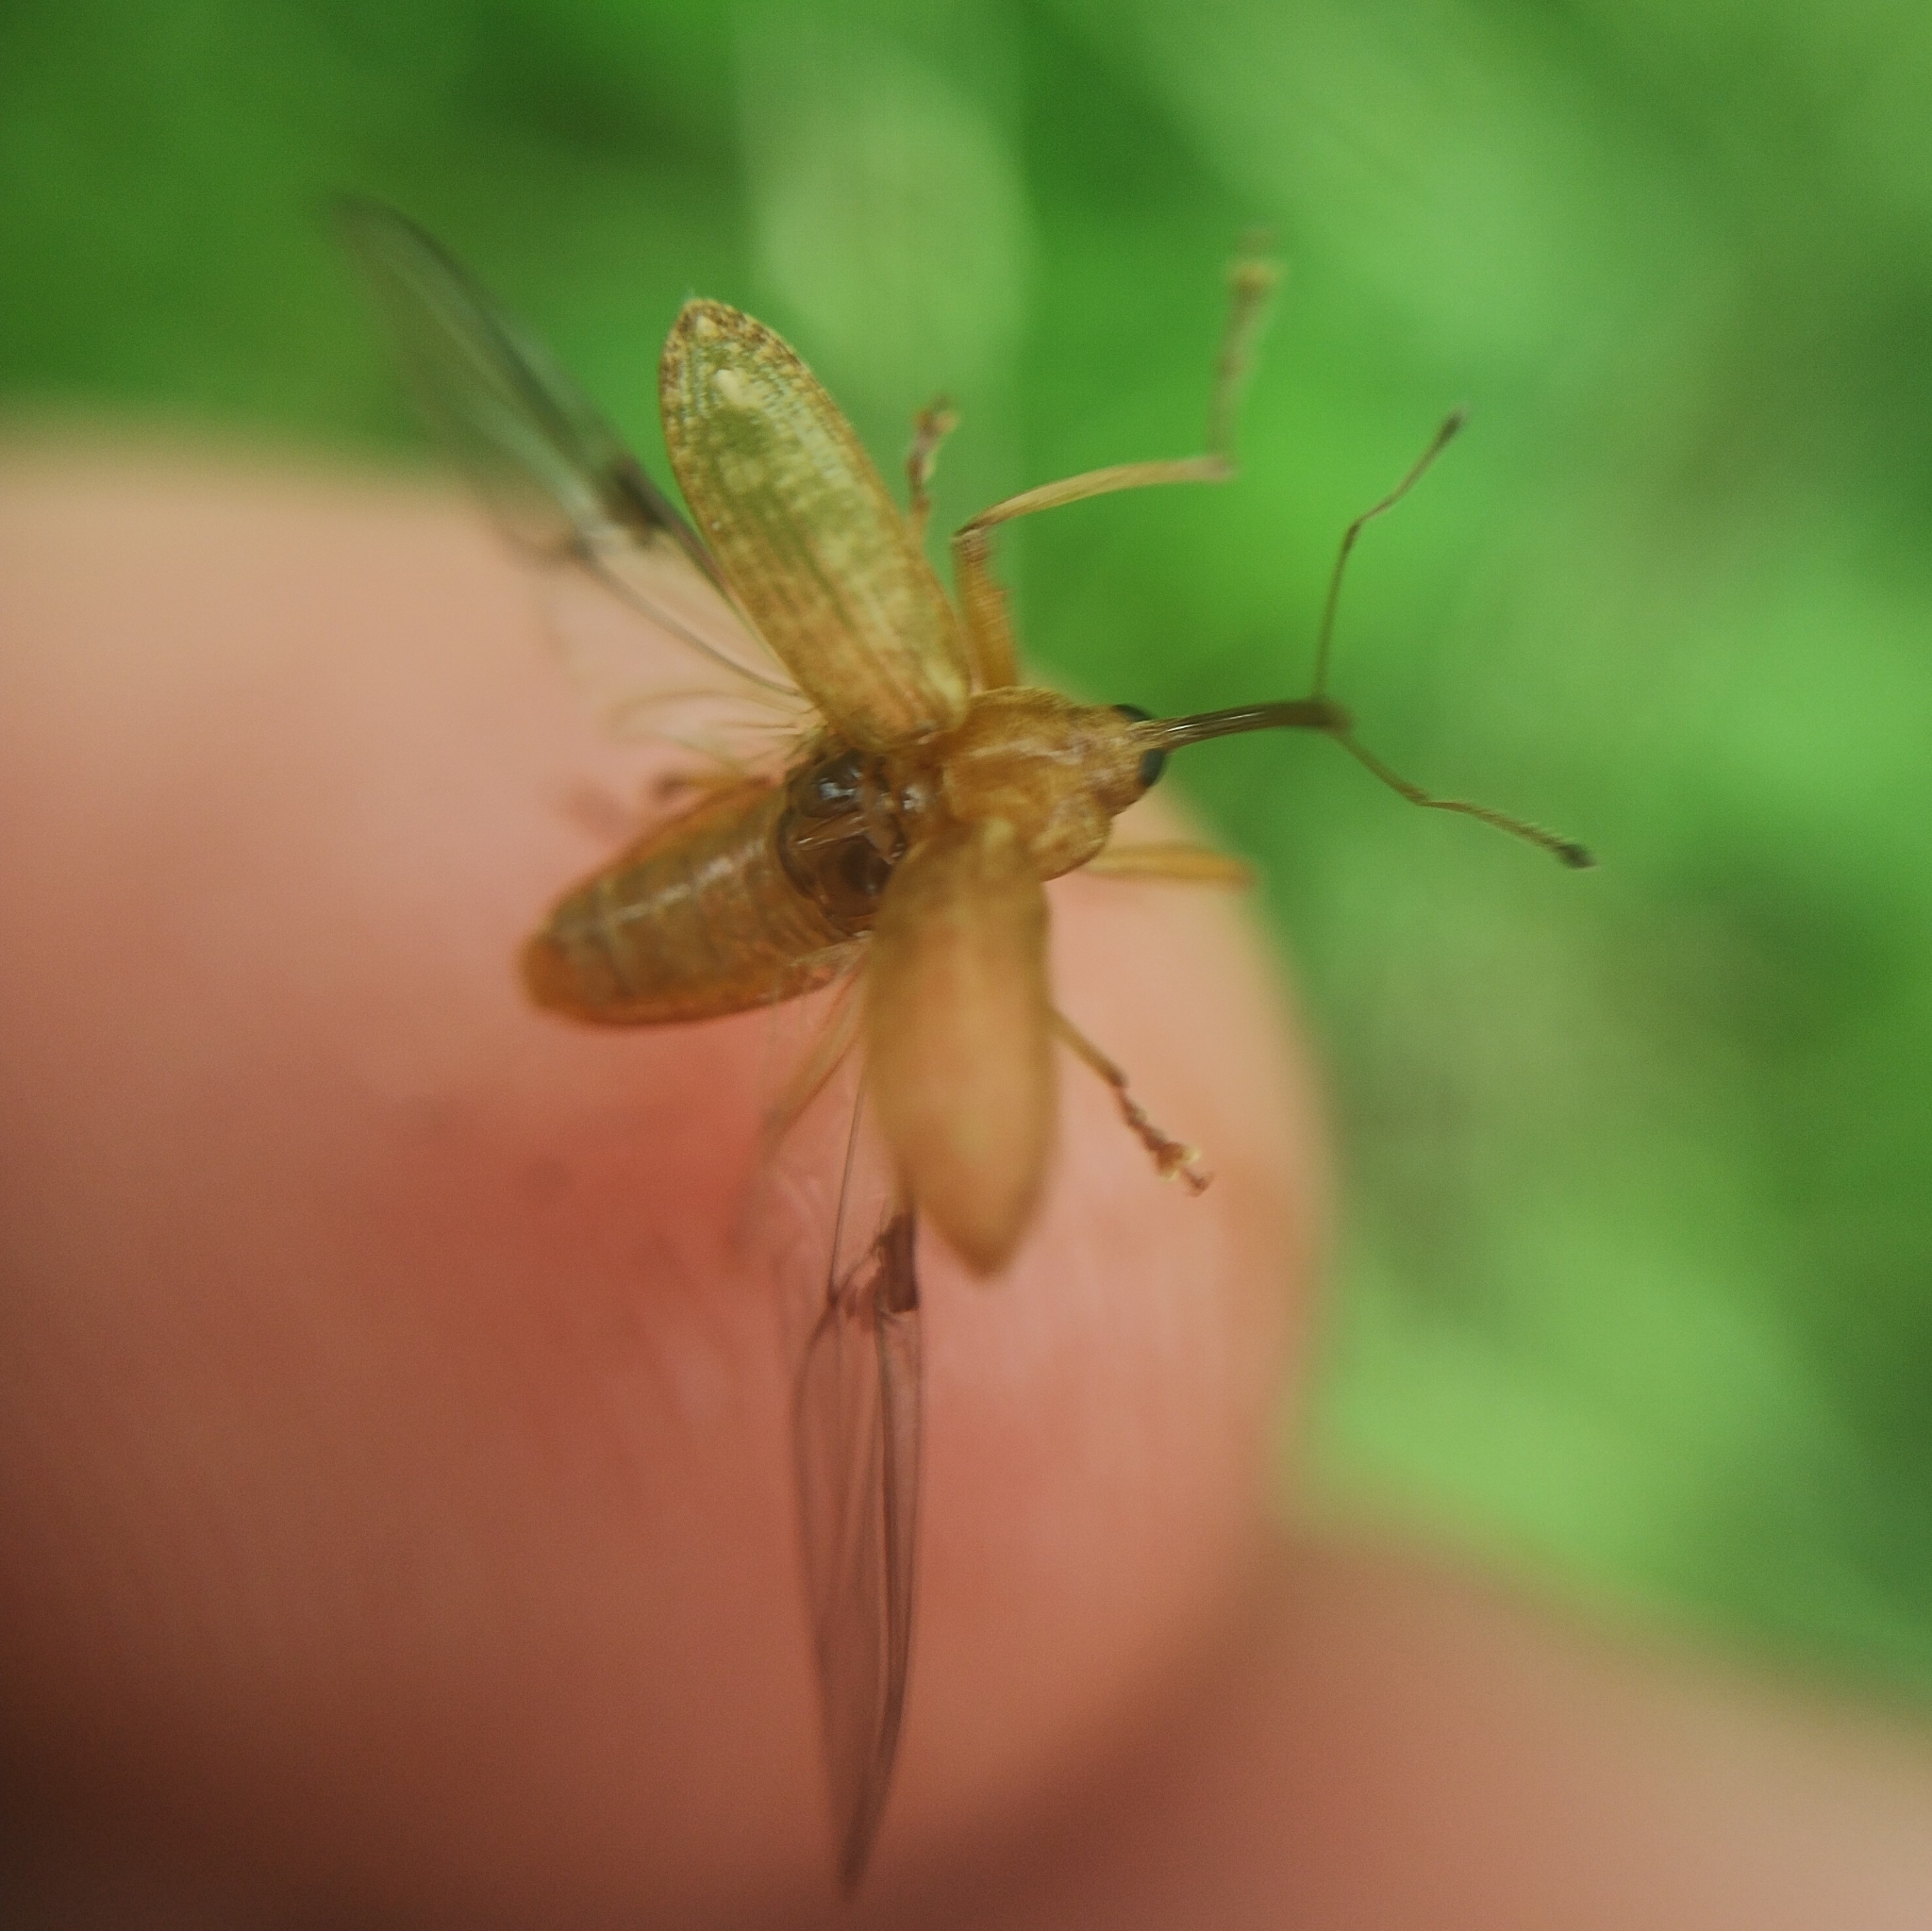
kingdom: Animalia
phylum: Arthropoda
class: Insecta
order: Coleoptera
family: Curculionidae
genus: Dorytomus
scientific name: Dorytomus longimanus
